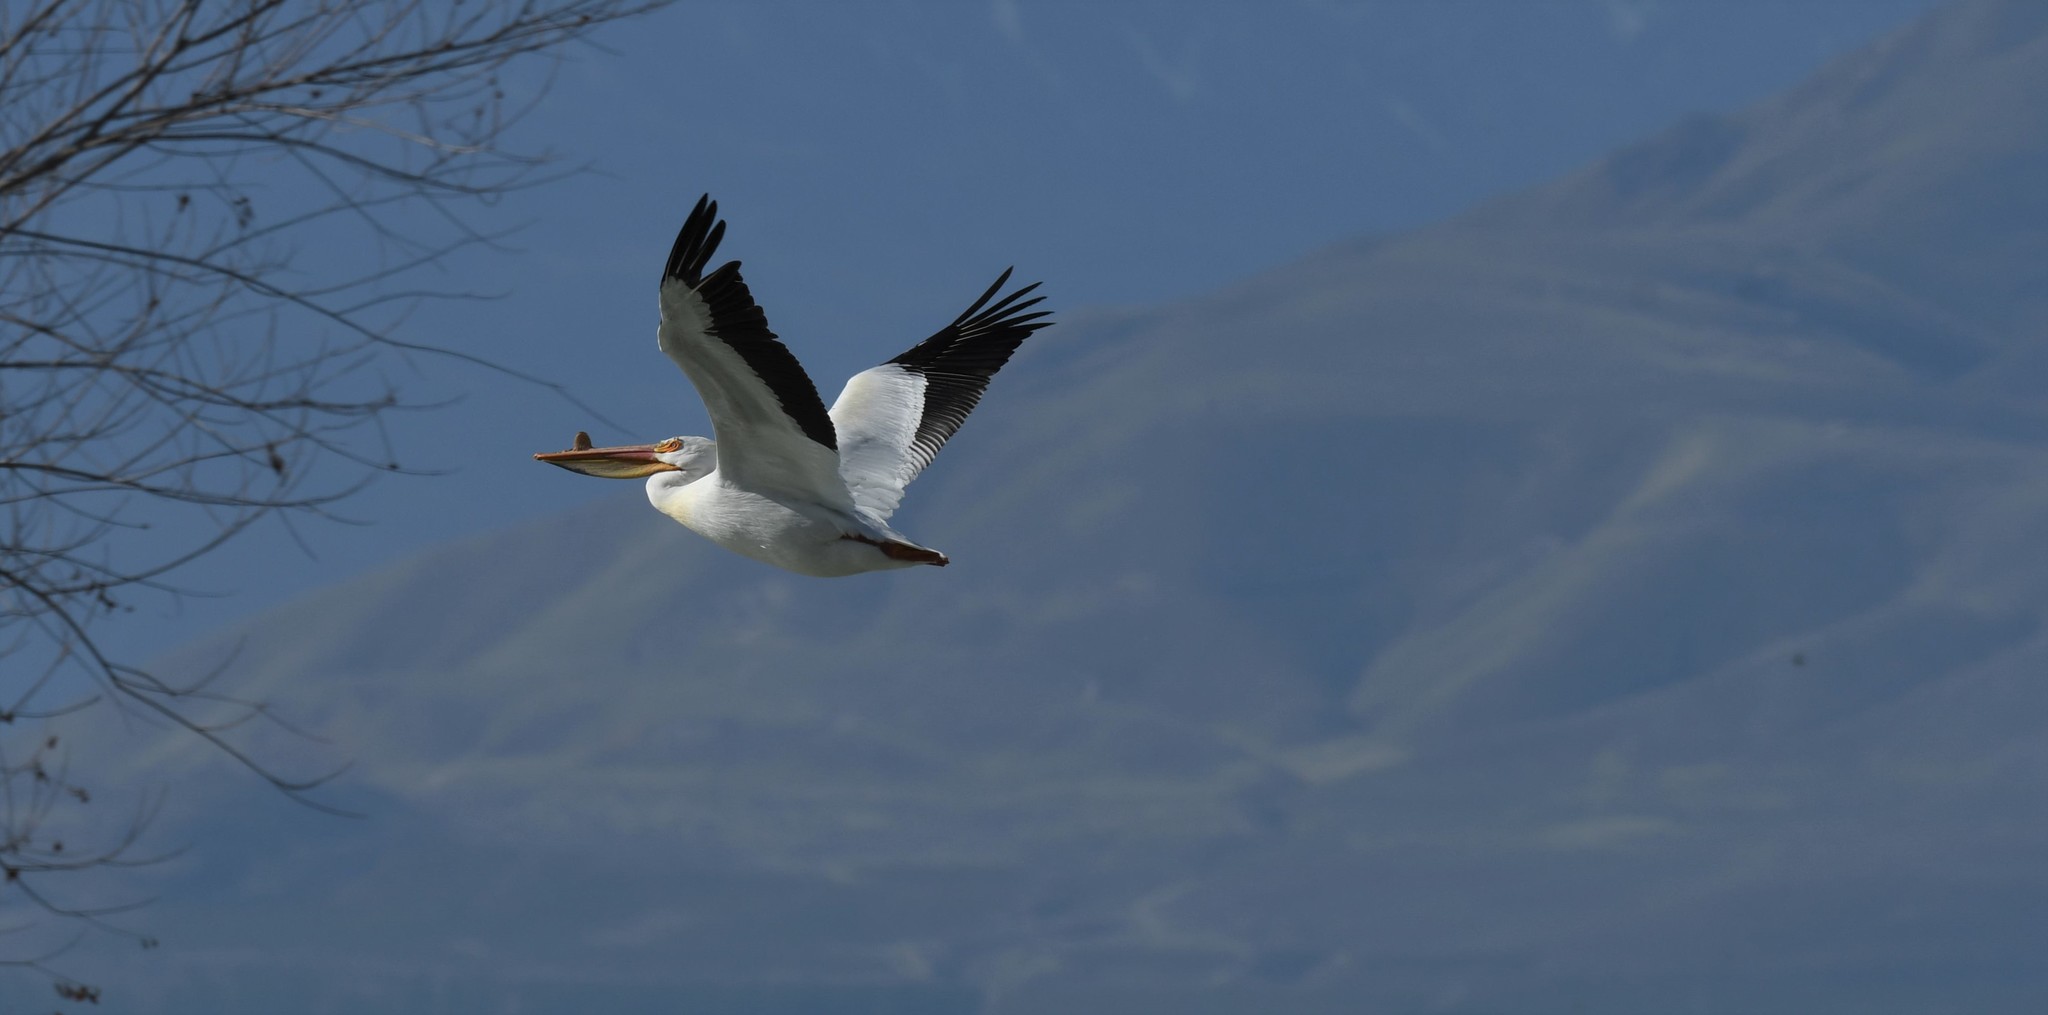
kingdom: Animalia
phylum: Chordata
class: Aves
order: Pelecaniformes
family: Pelecanidae
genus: Pelecanus
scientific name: Pelecanus erythrorhynchos
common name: American white pelican
